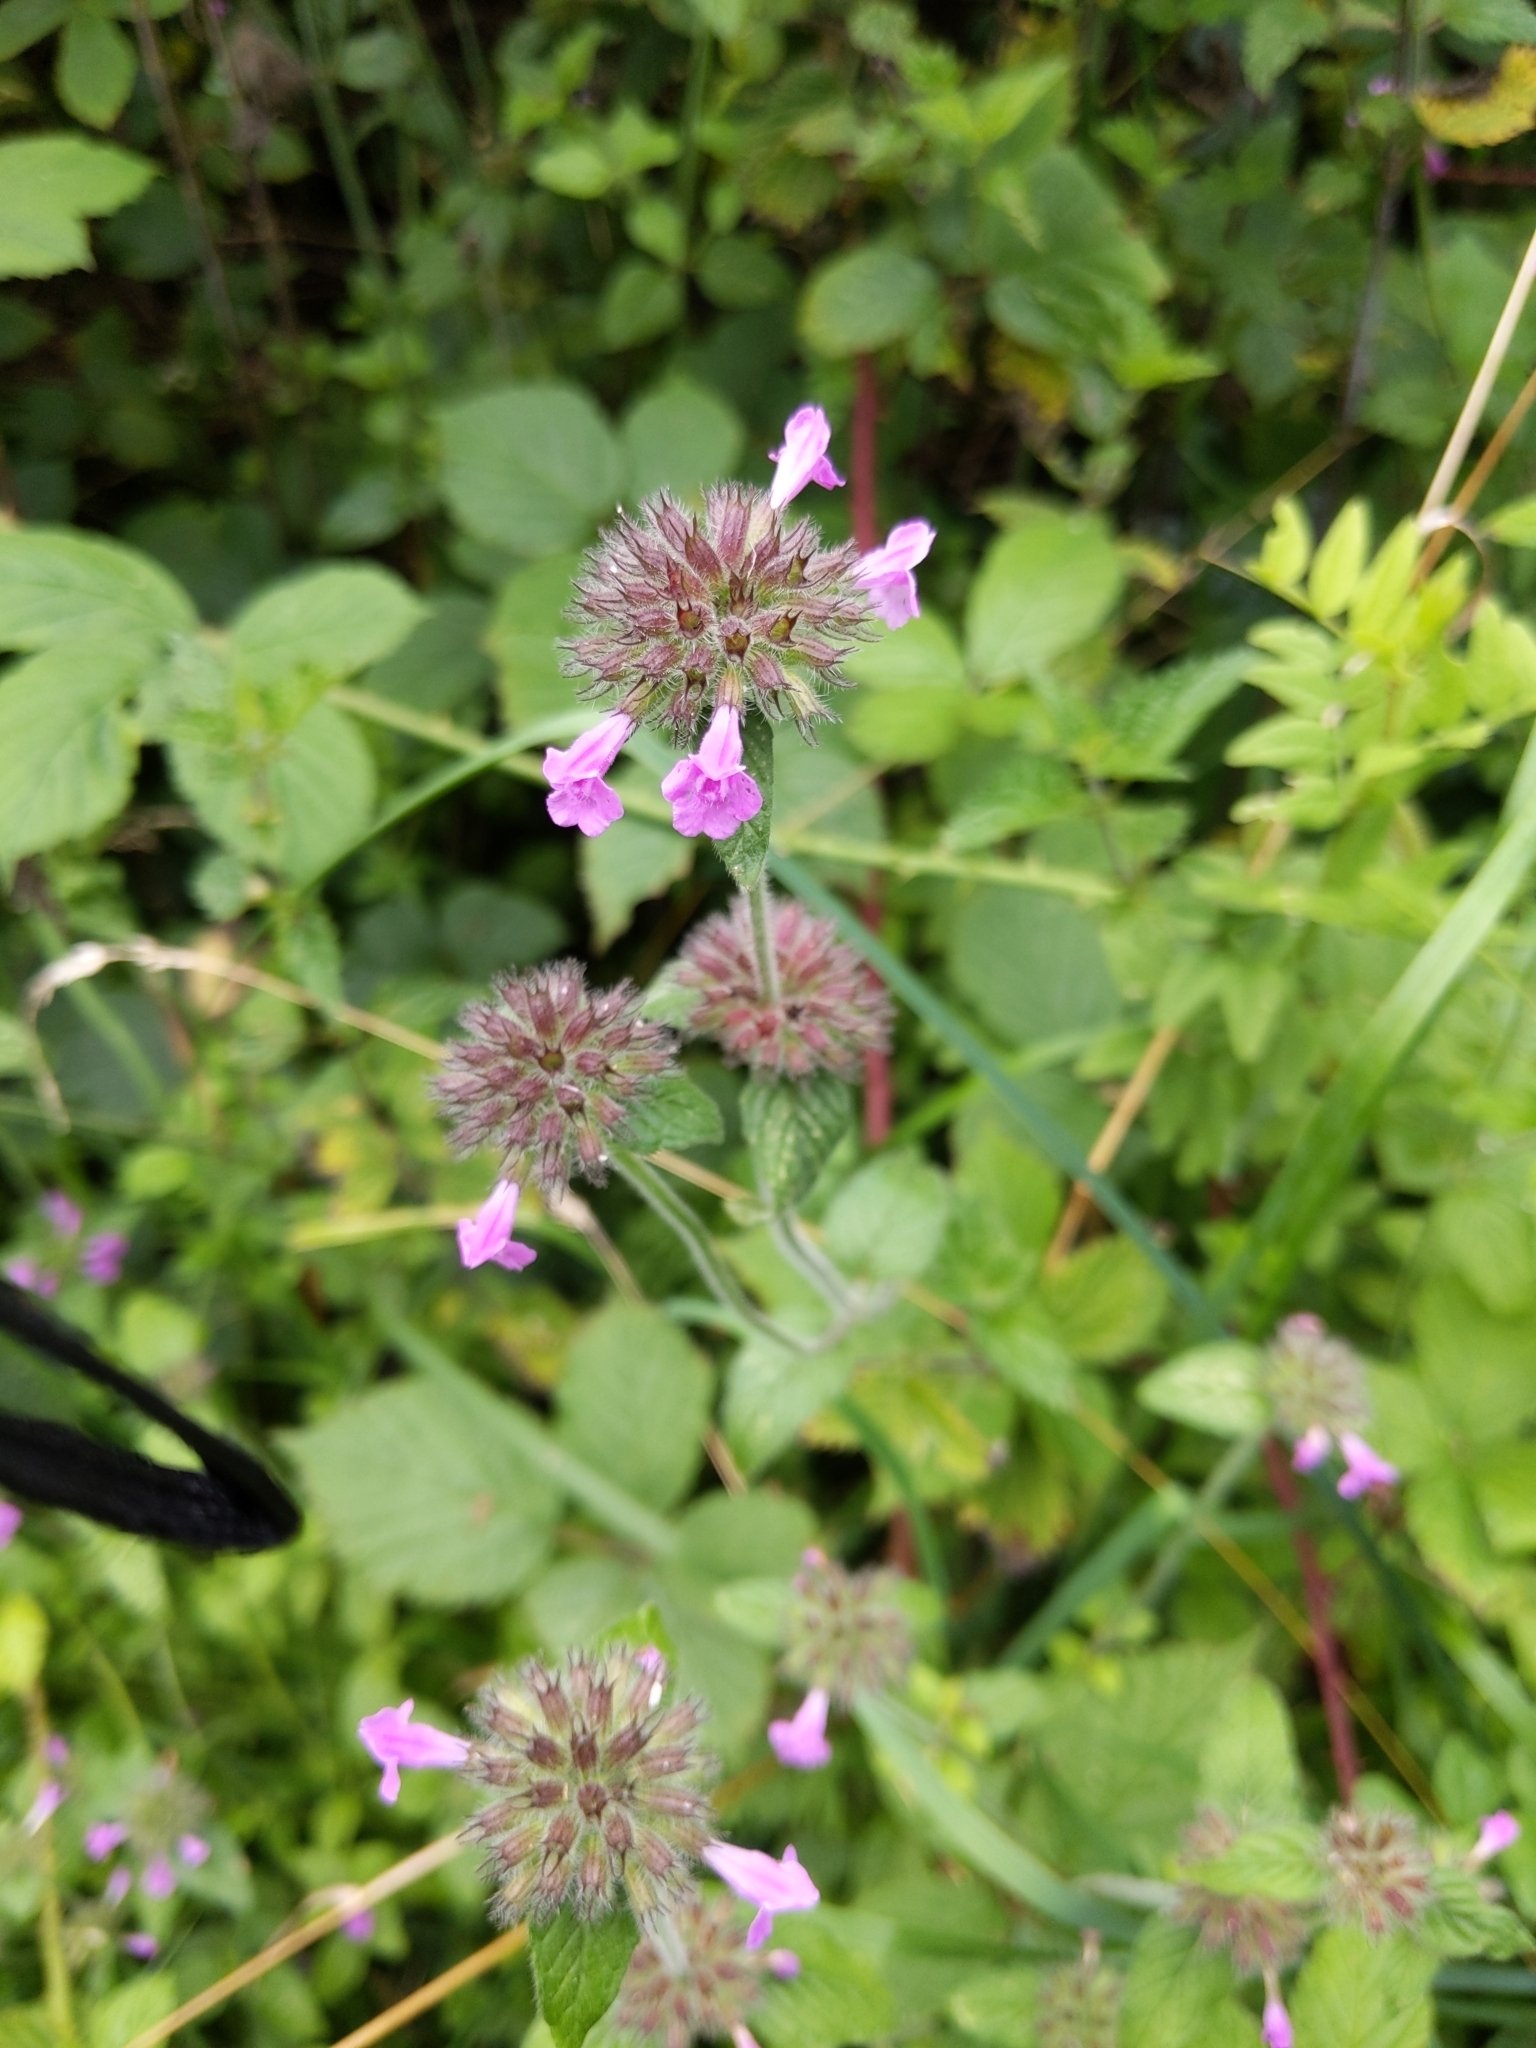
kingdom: Plantae
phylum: Tracheophyta
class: Magnoliopsida
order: Lamiales
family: Lamiaceae
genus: Clinopodium
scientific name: Clinopodium vulgare
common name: Wild basil
